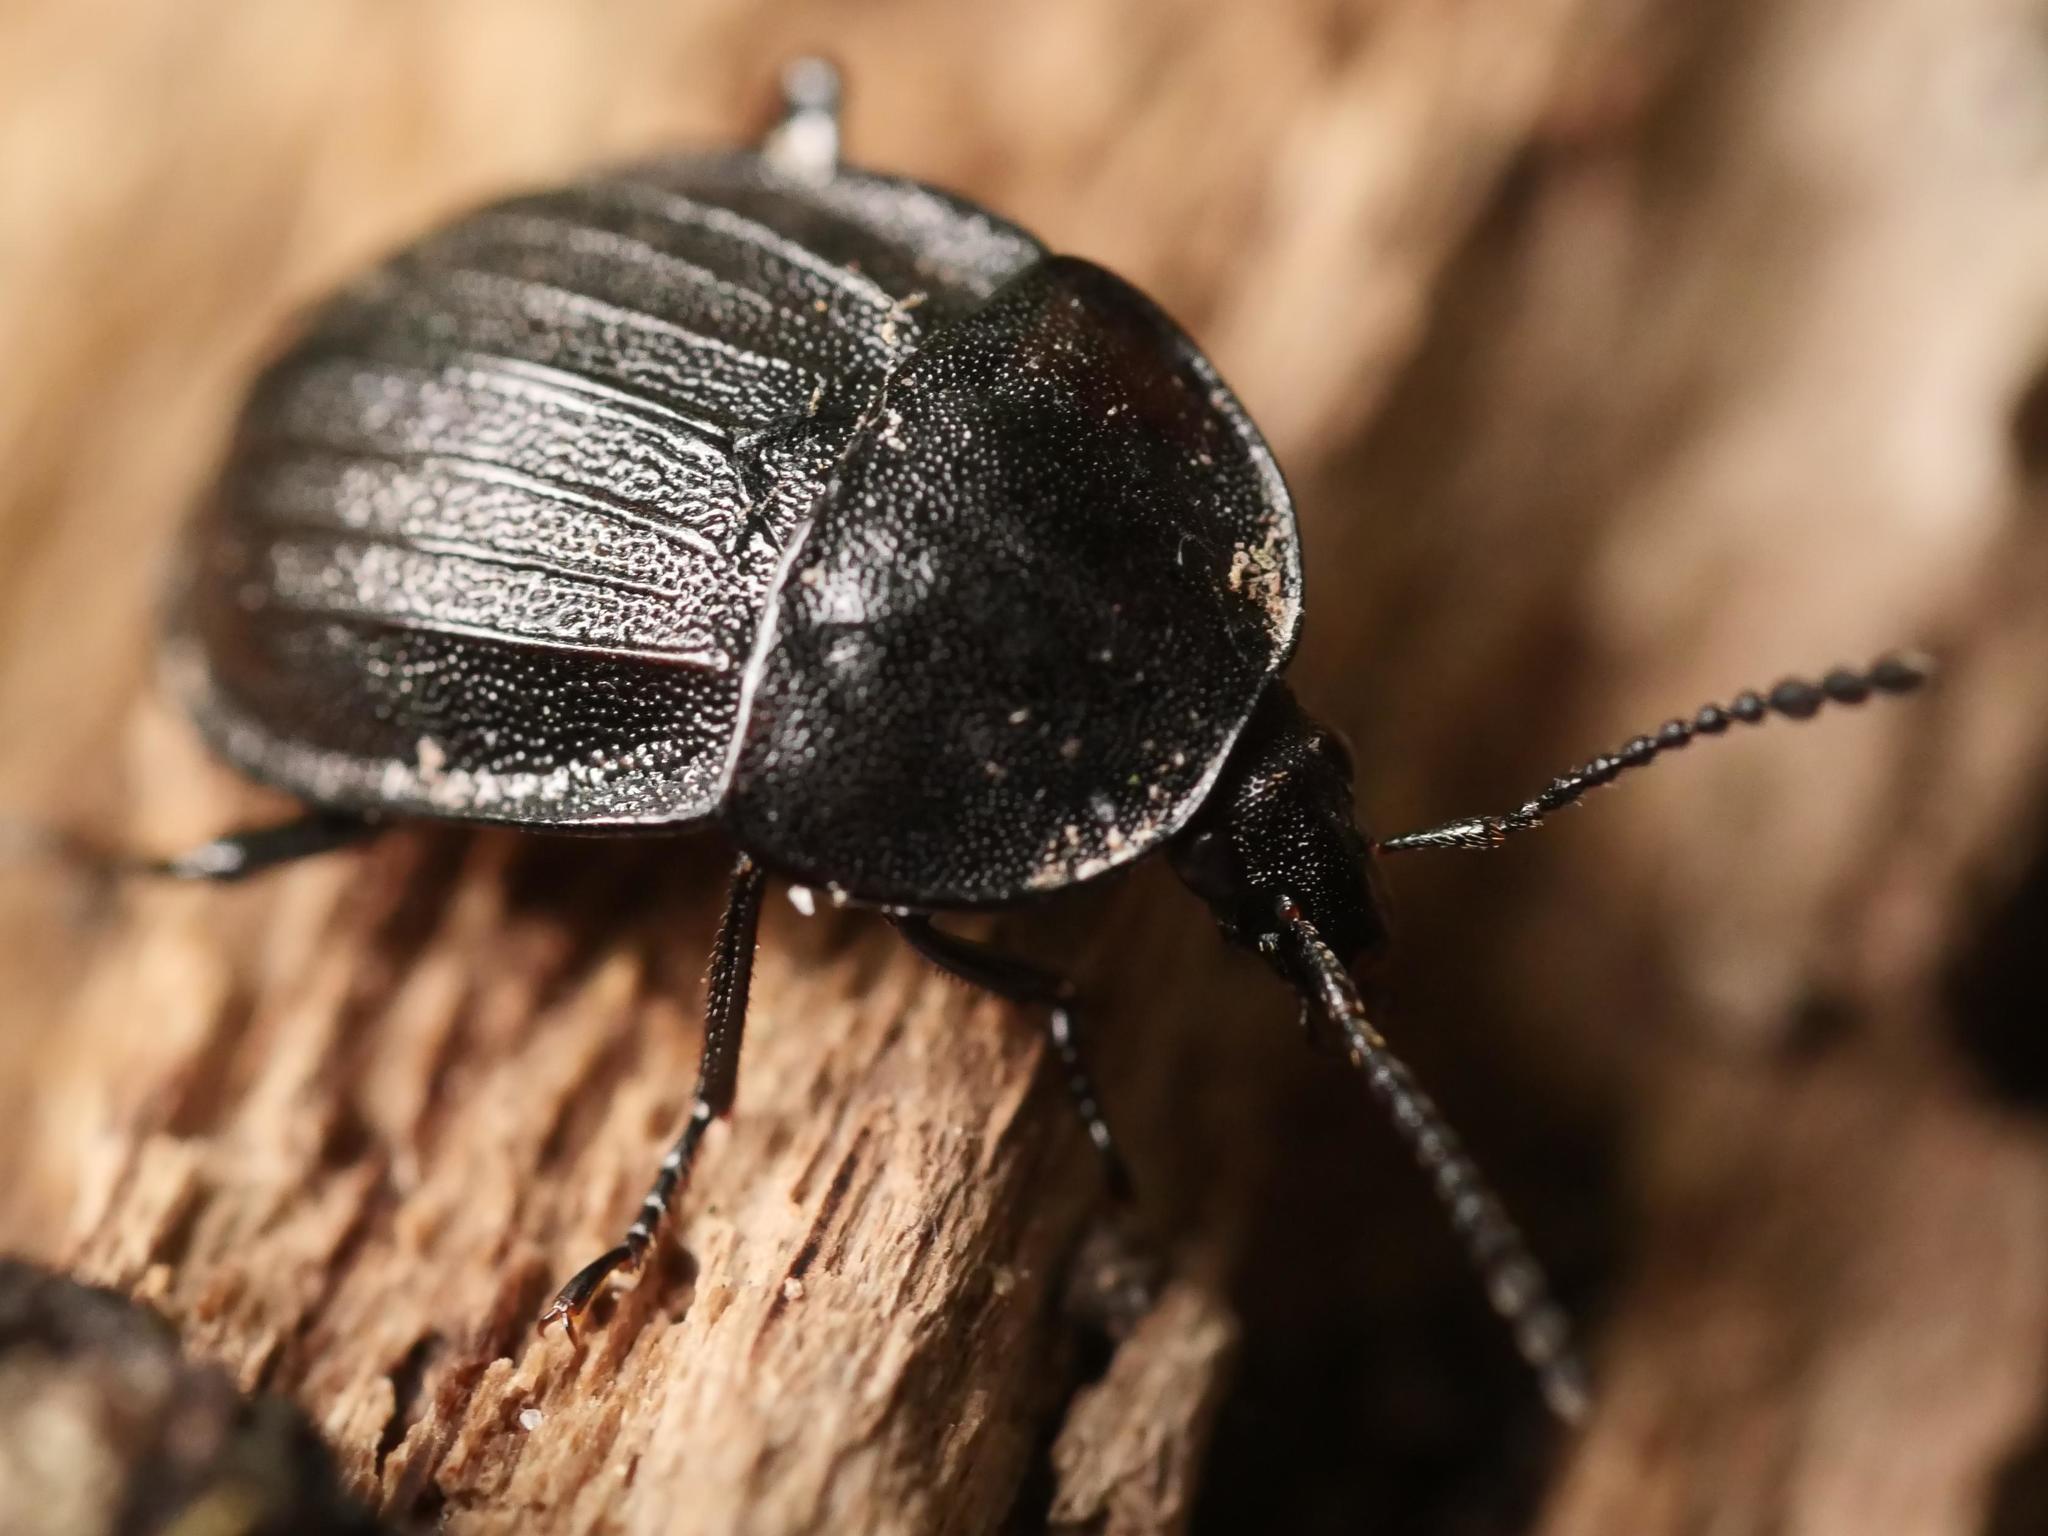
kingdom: Animalia
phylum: Arthropoda
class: Insecta
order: Coleoptera
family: Staphylinidae
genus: Silpha
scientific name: Silpha atrata
